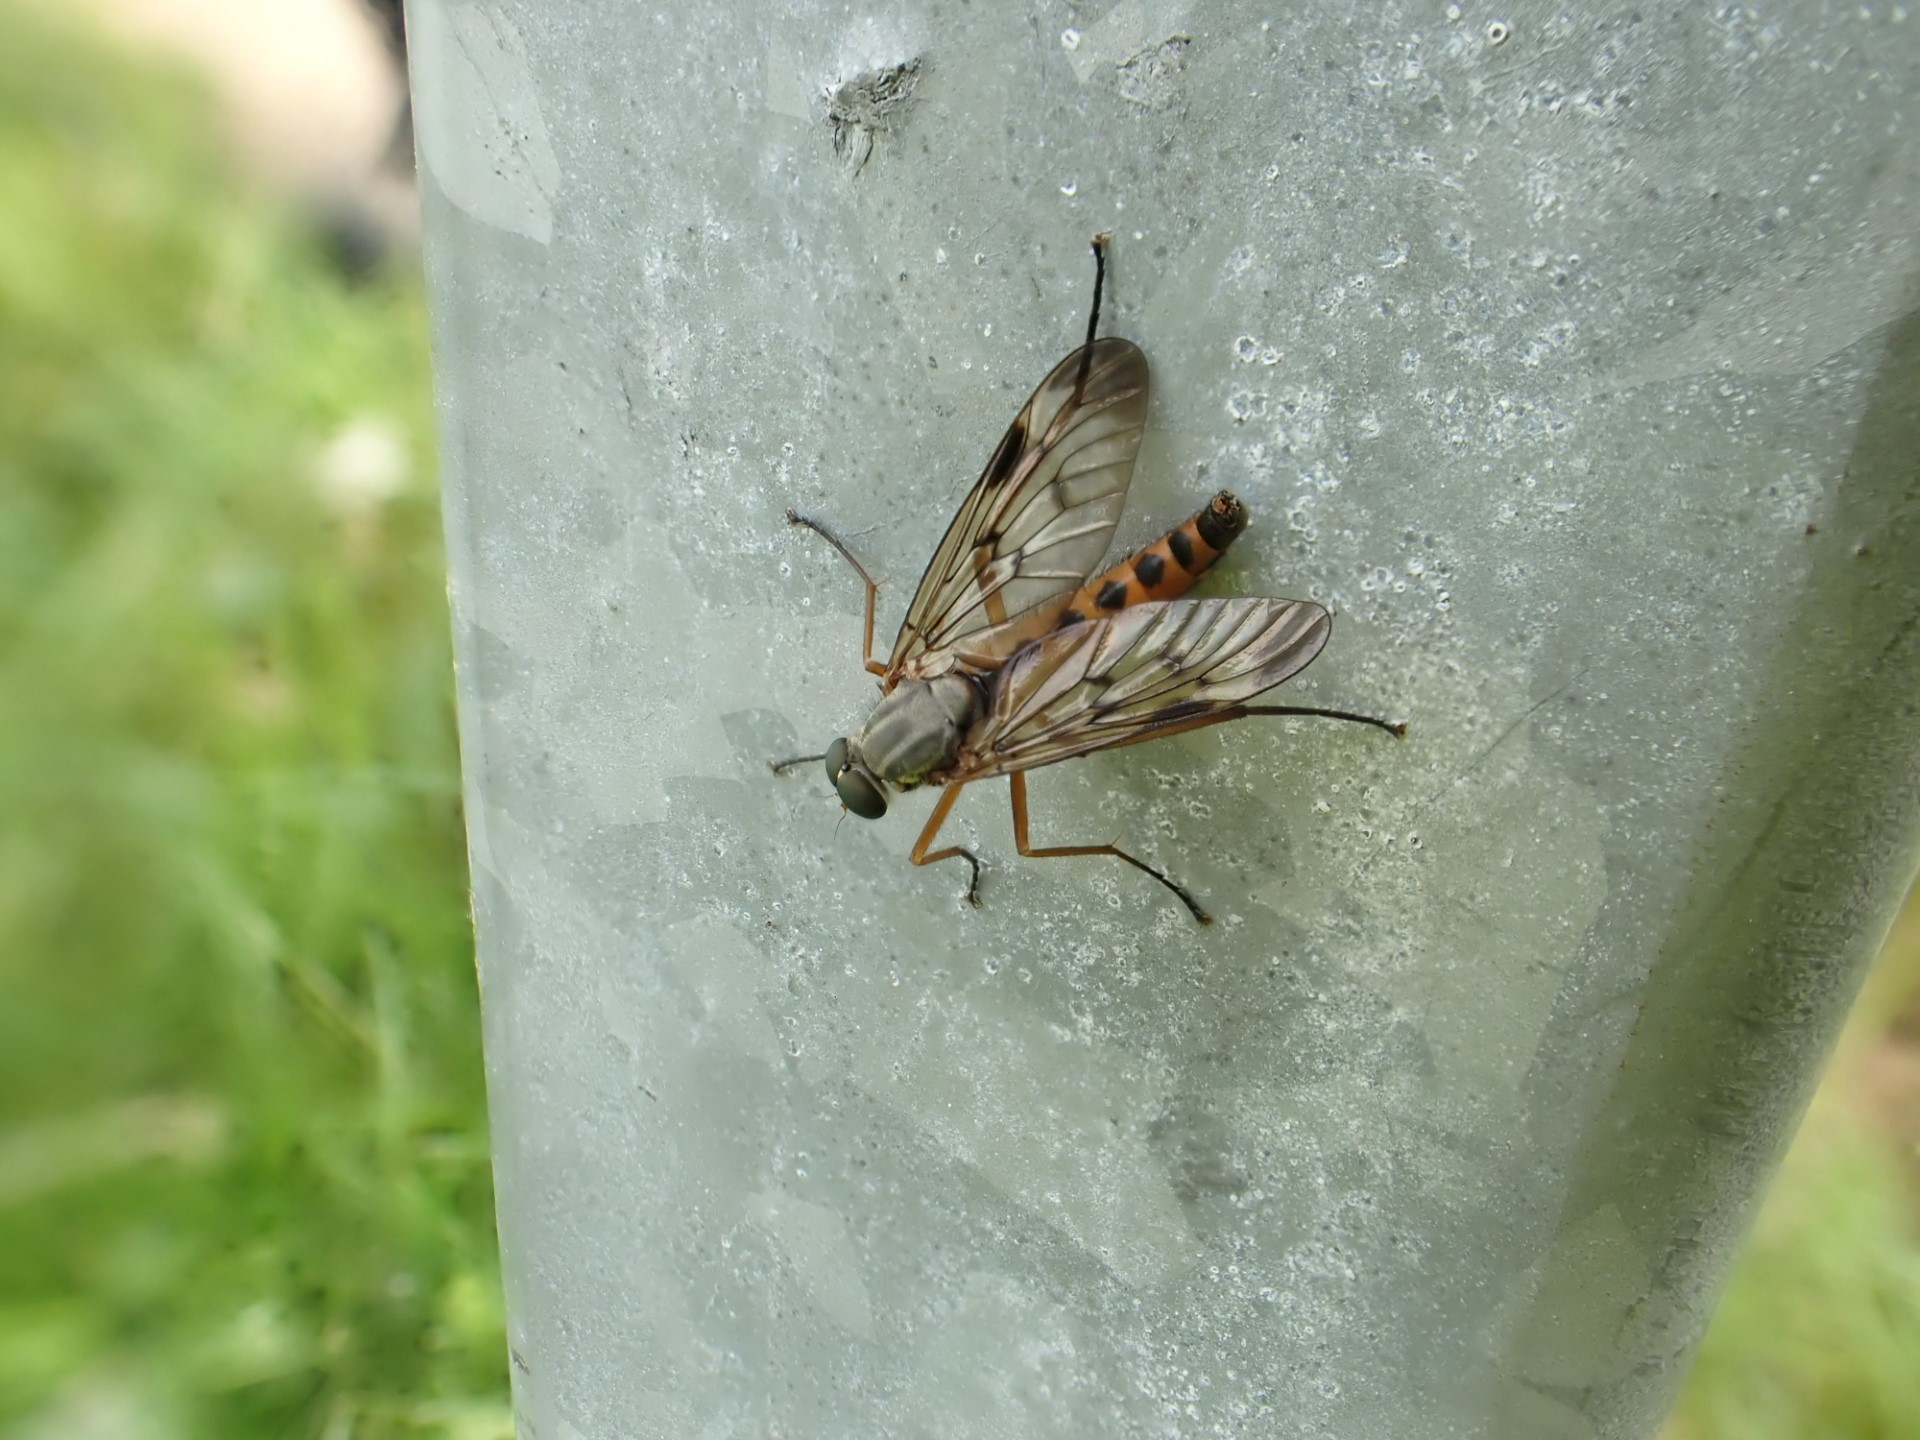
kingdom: Animalia
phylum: Arthropoda
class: Insecta
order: Diptera
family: Rhagionidae
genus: Rhagio
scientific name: Rhagio scolopacea
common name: Downlooker snipefly
